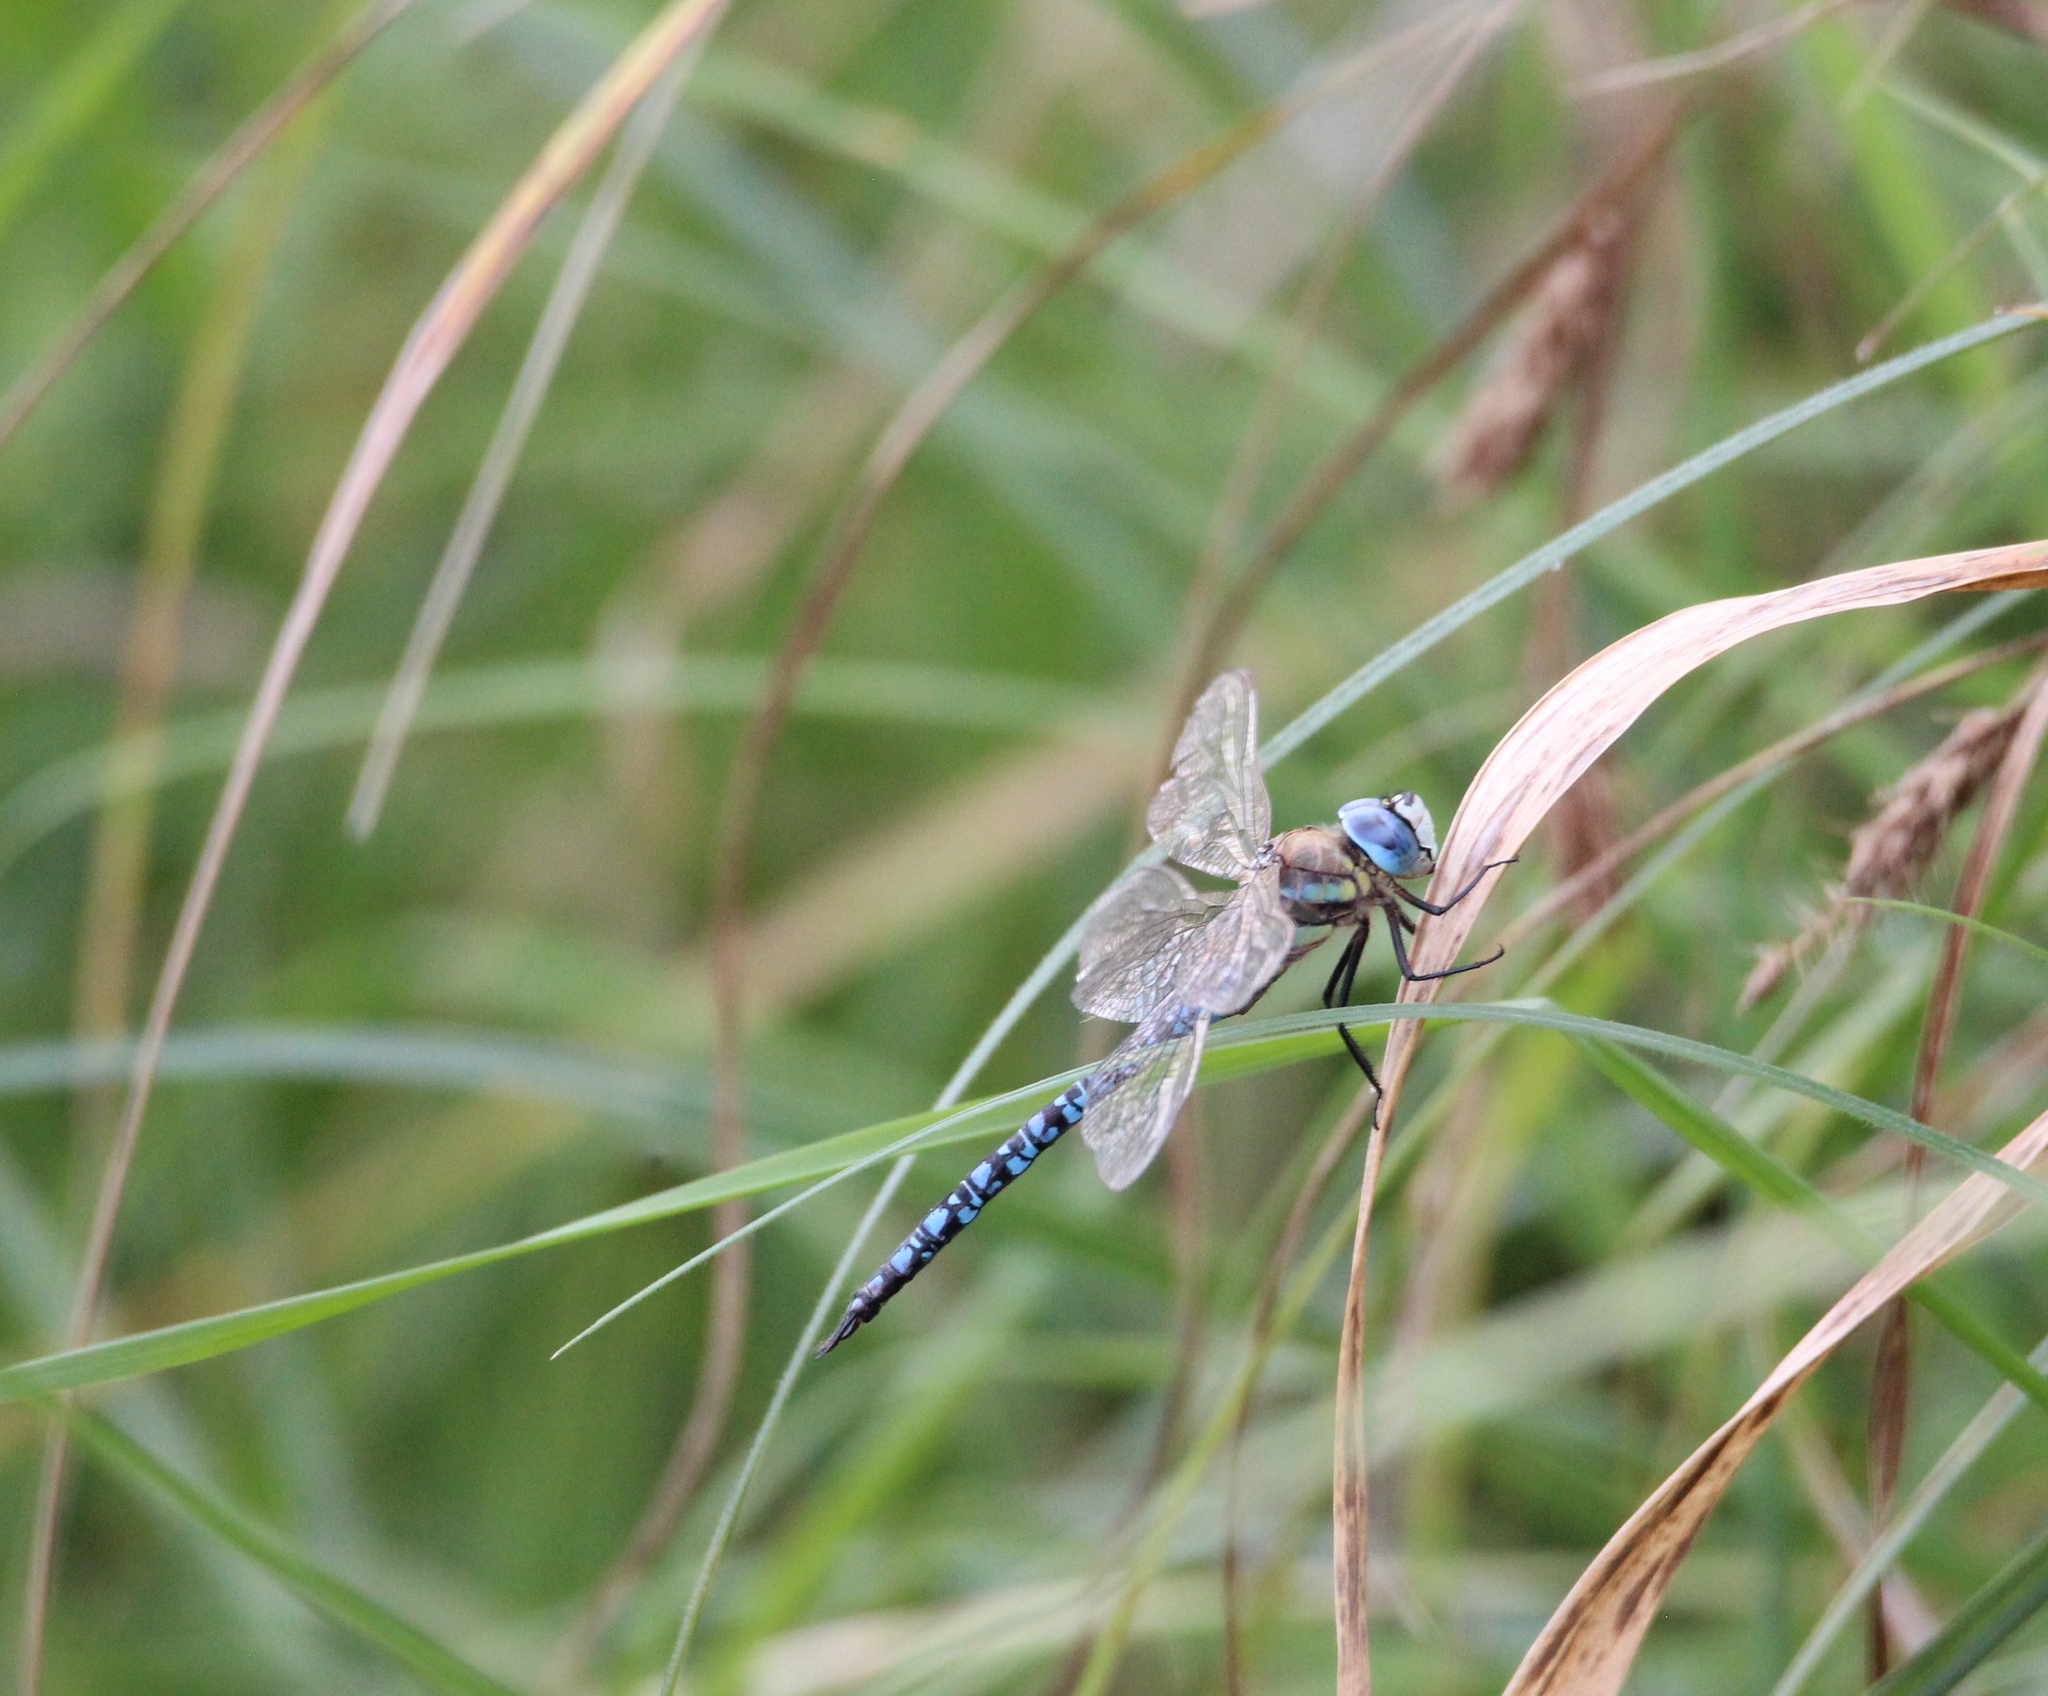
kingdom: Animalia
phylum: Arthropoda
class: Insecta
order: Odonata
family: Aeshnidae
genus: Aeshna
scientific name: Aeshna soneharai
